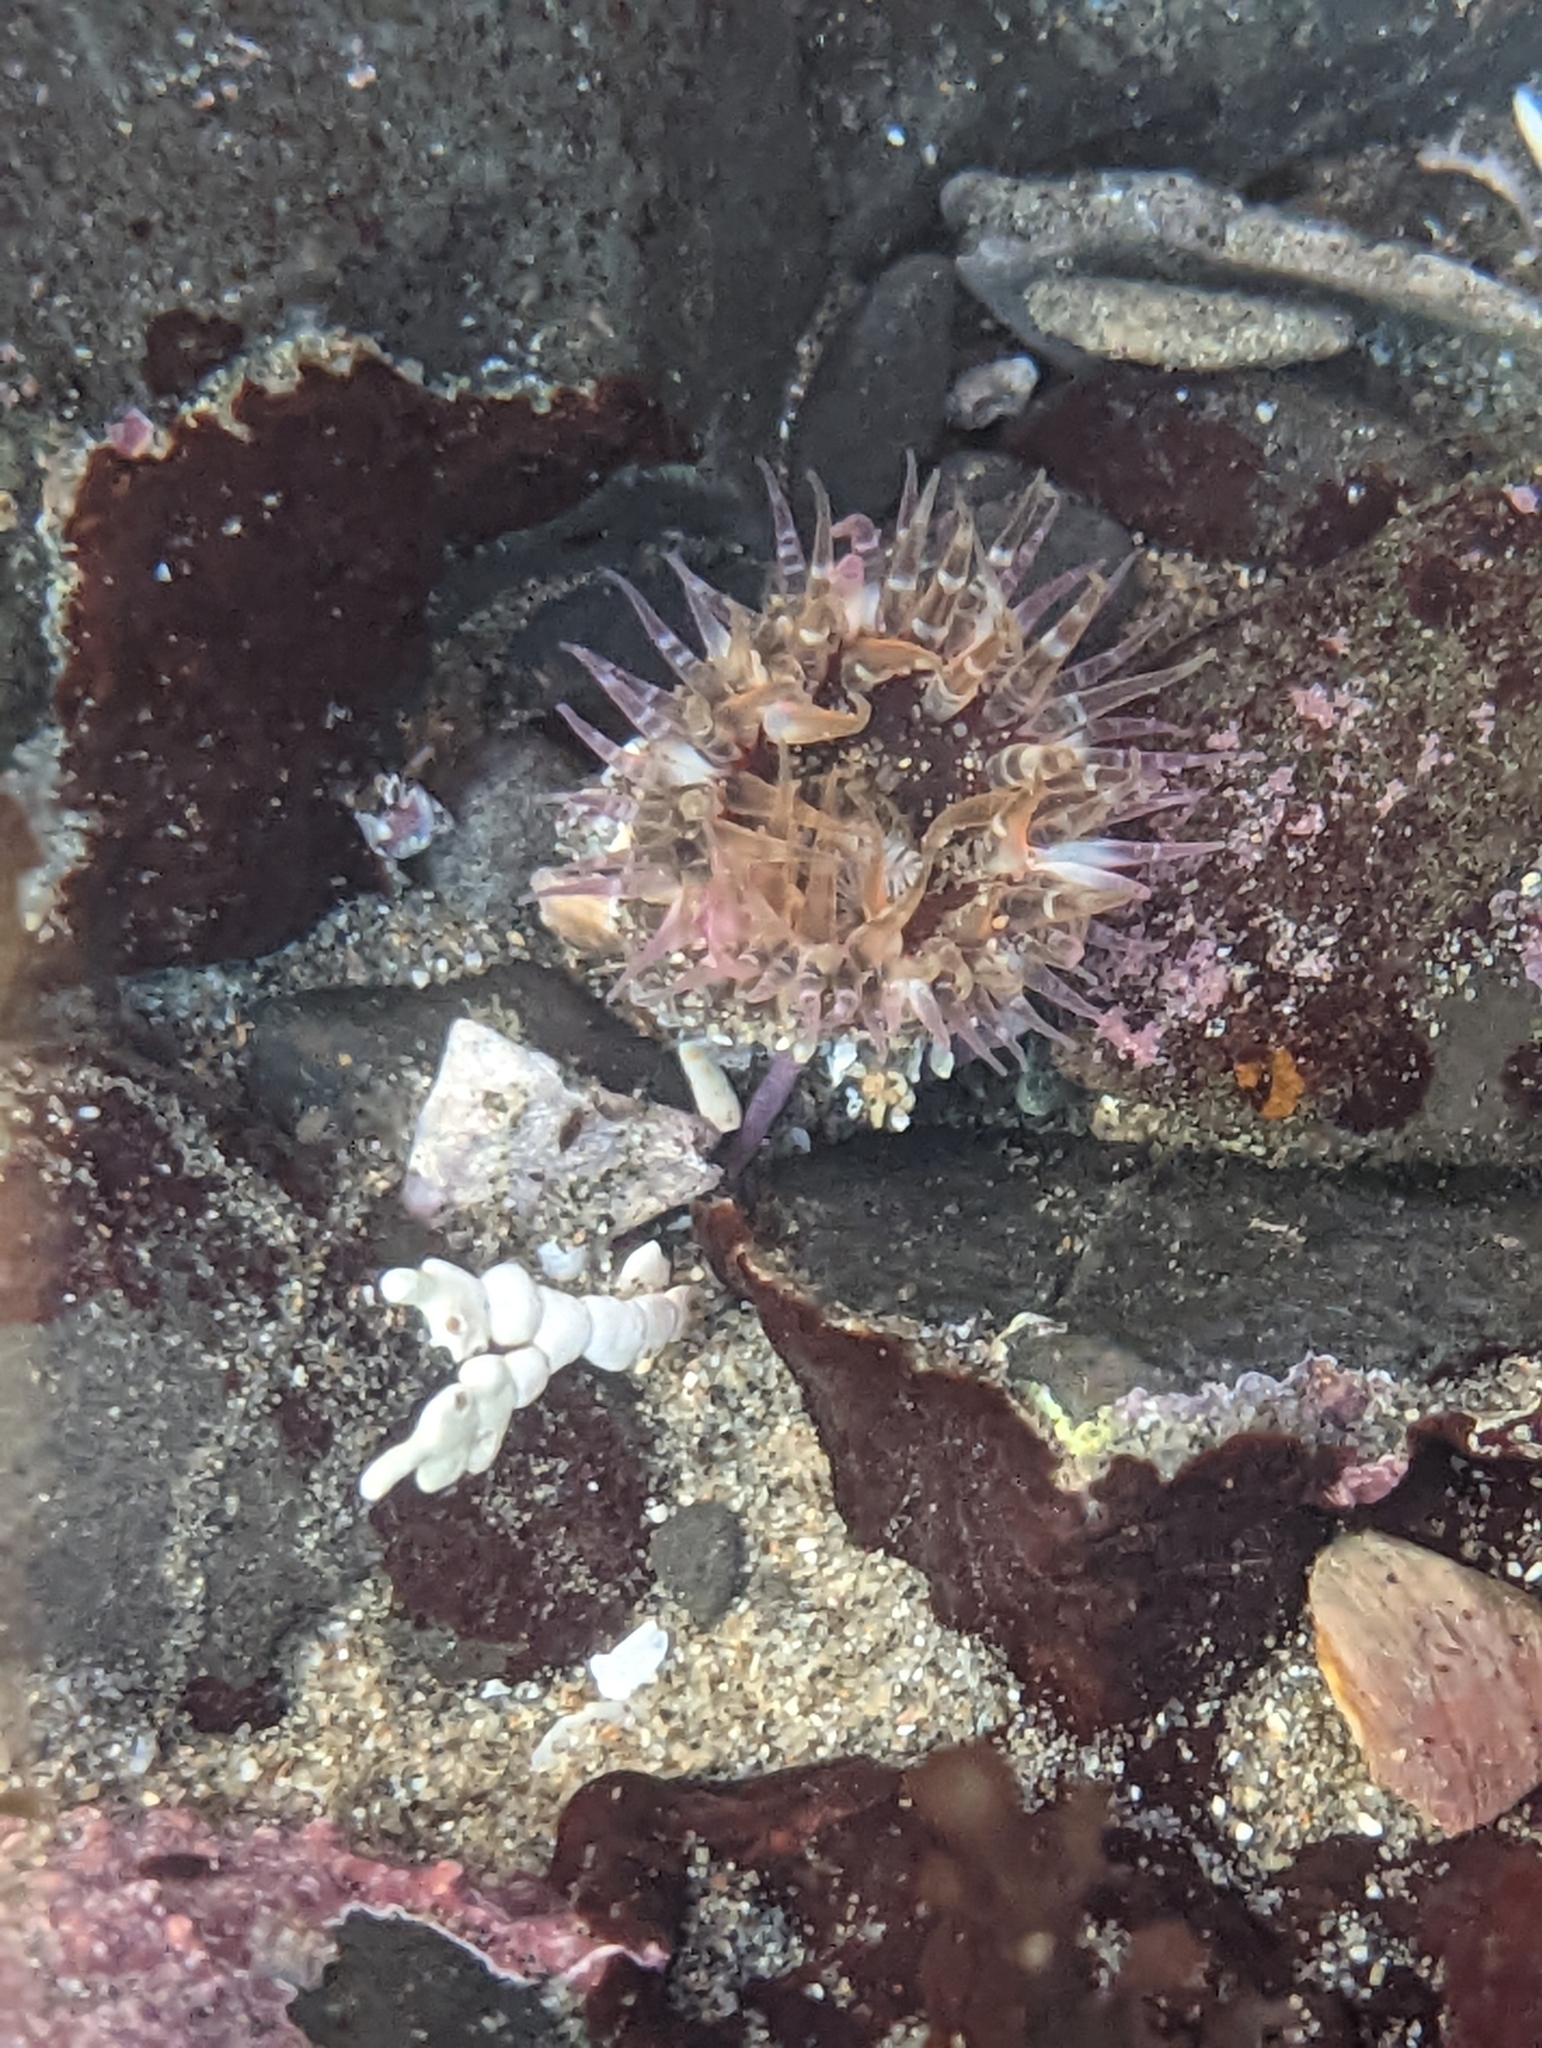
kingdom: Animalia
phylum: Cnidaria
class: Anthozoa
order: Actiniaria
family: Actiniidae
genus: Anthopleura
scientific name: Anthopleura artemisia
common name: Buried sea anemone
